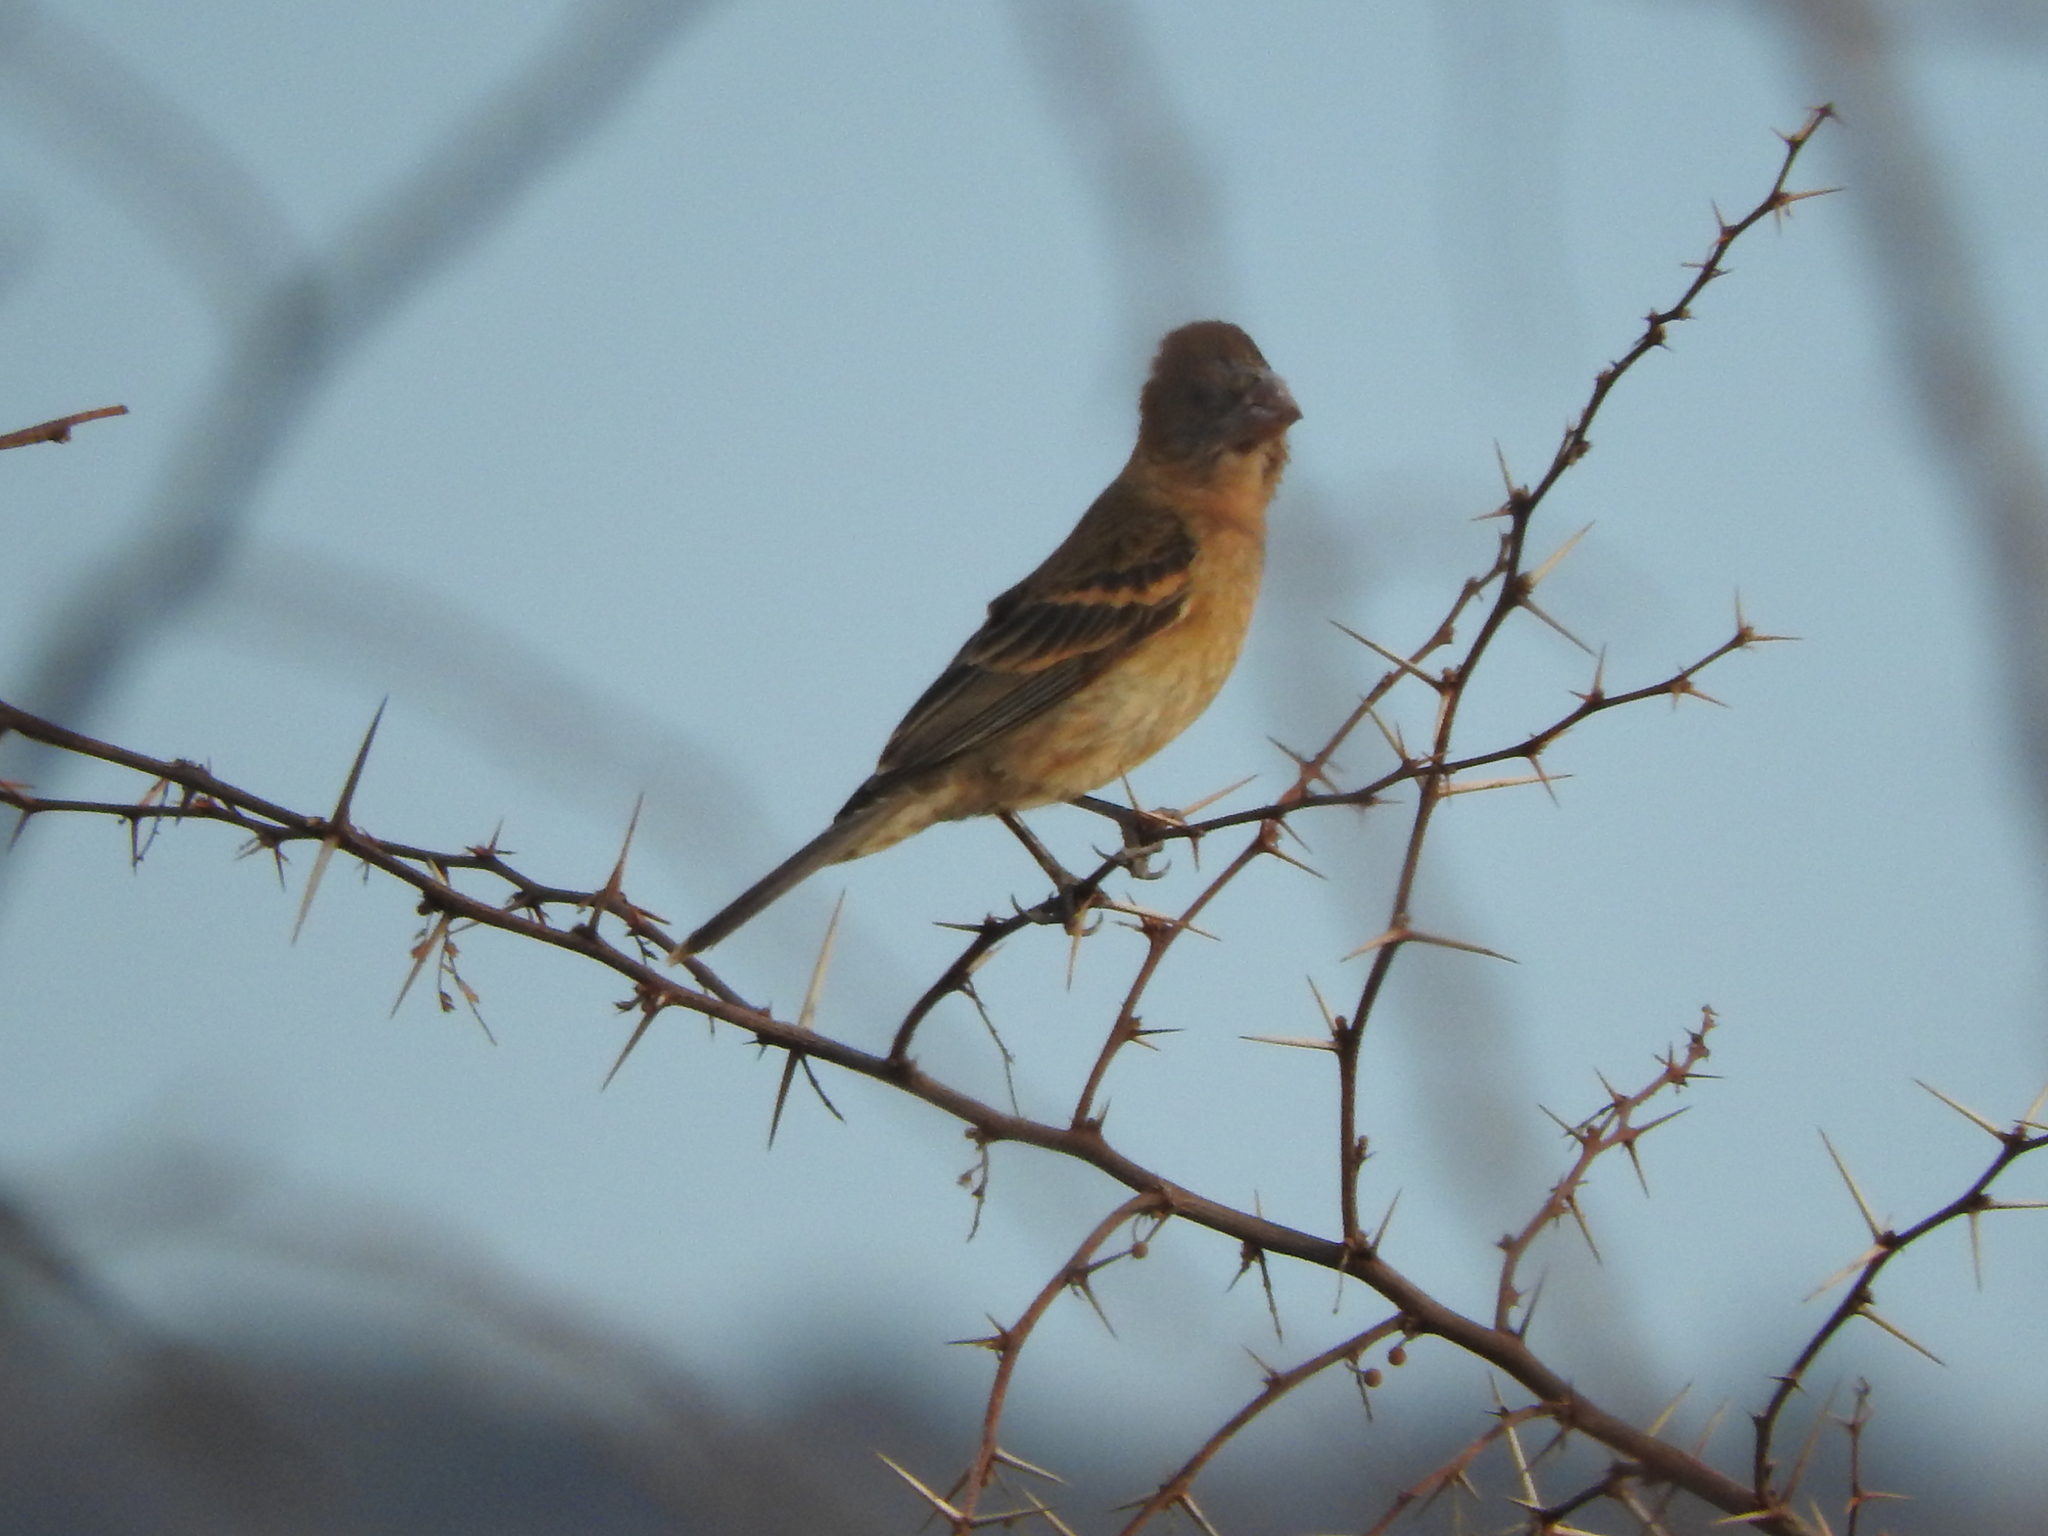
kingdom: Animalia
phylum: Chordata
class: Aves
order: Passeriformes
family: Cardinalidae
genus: Passerina
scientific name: Passerina caerulea
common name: Blue grosbeak
